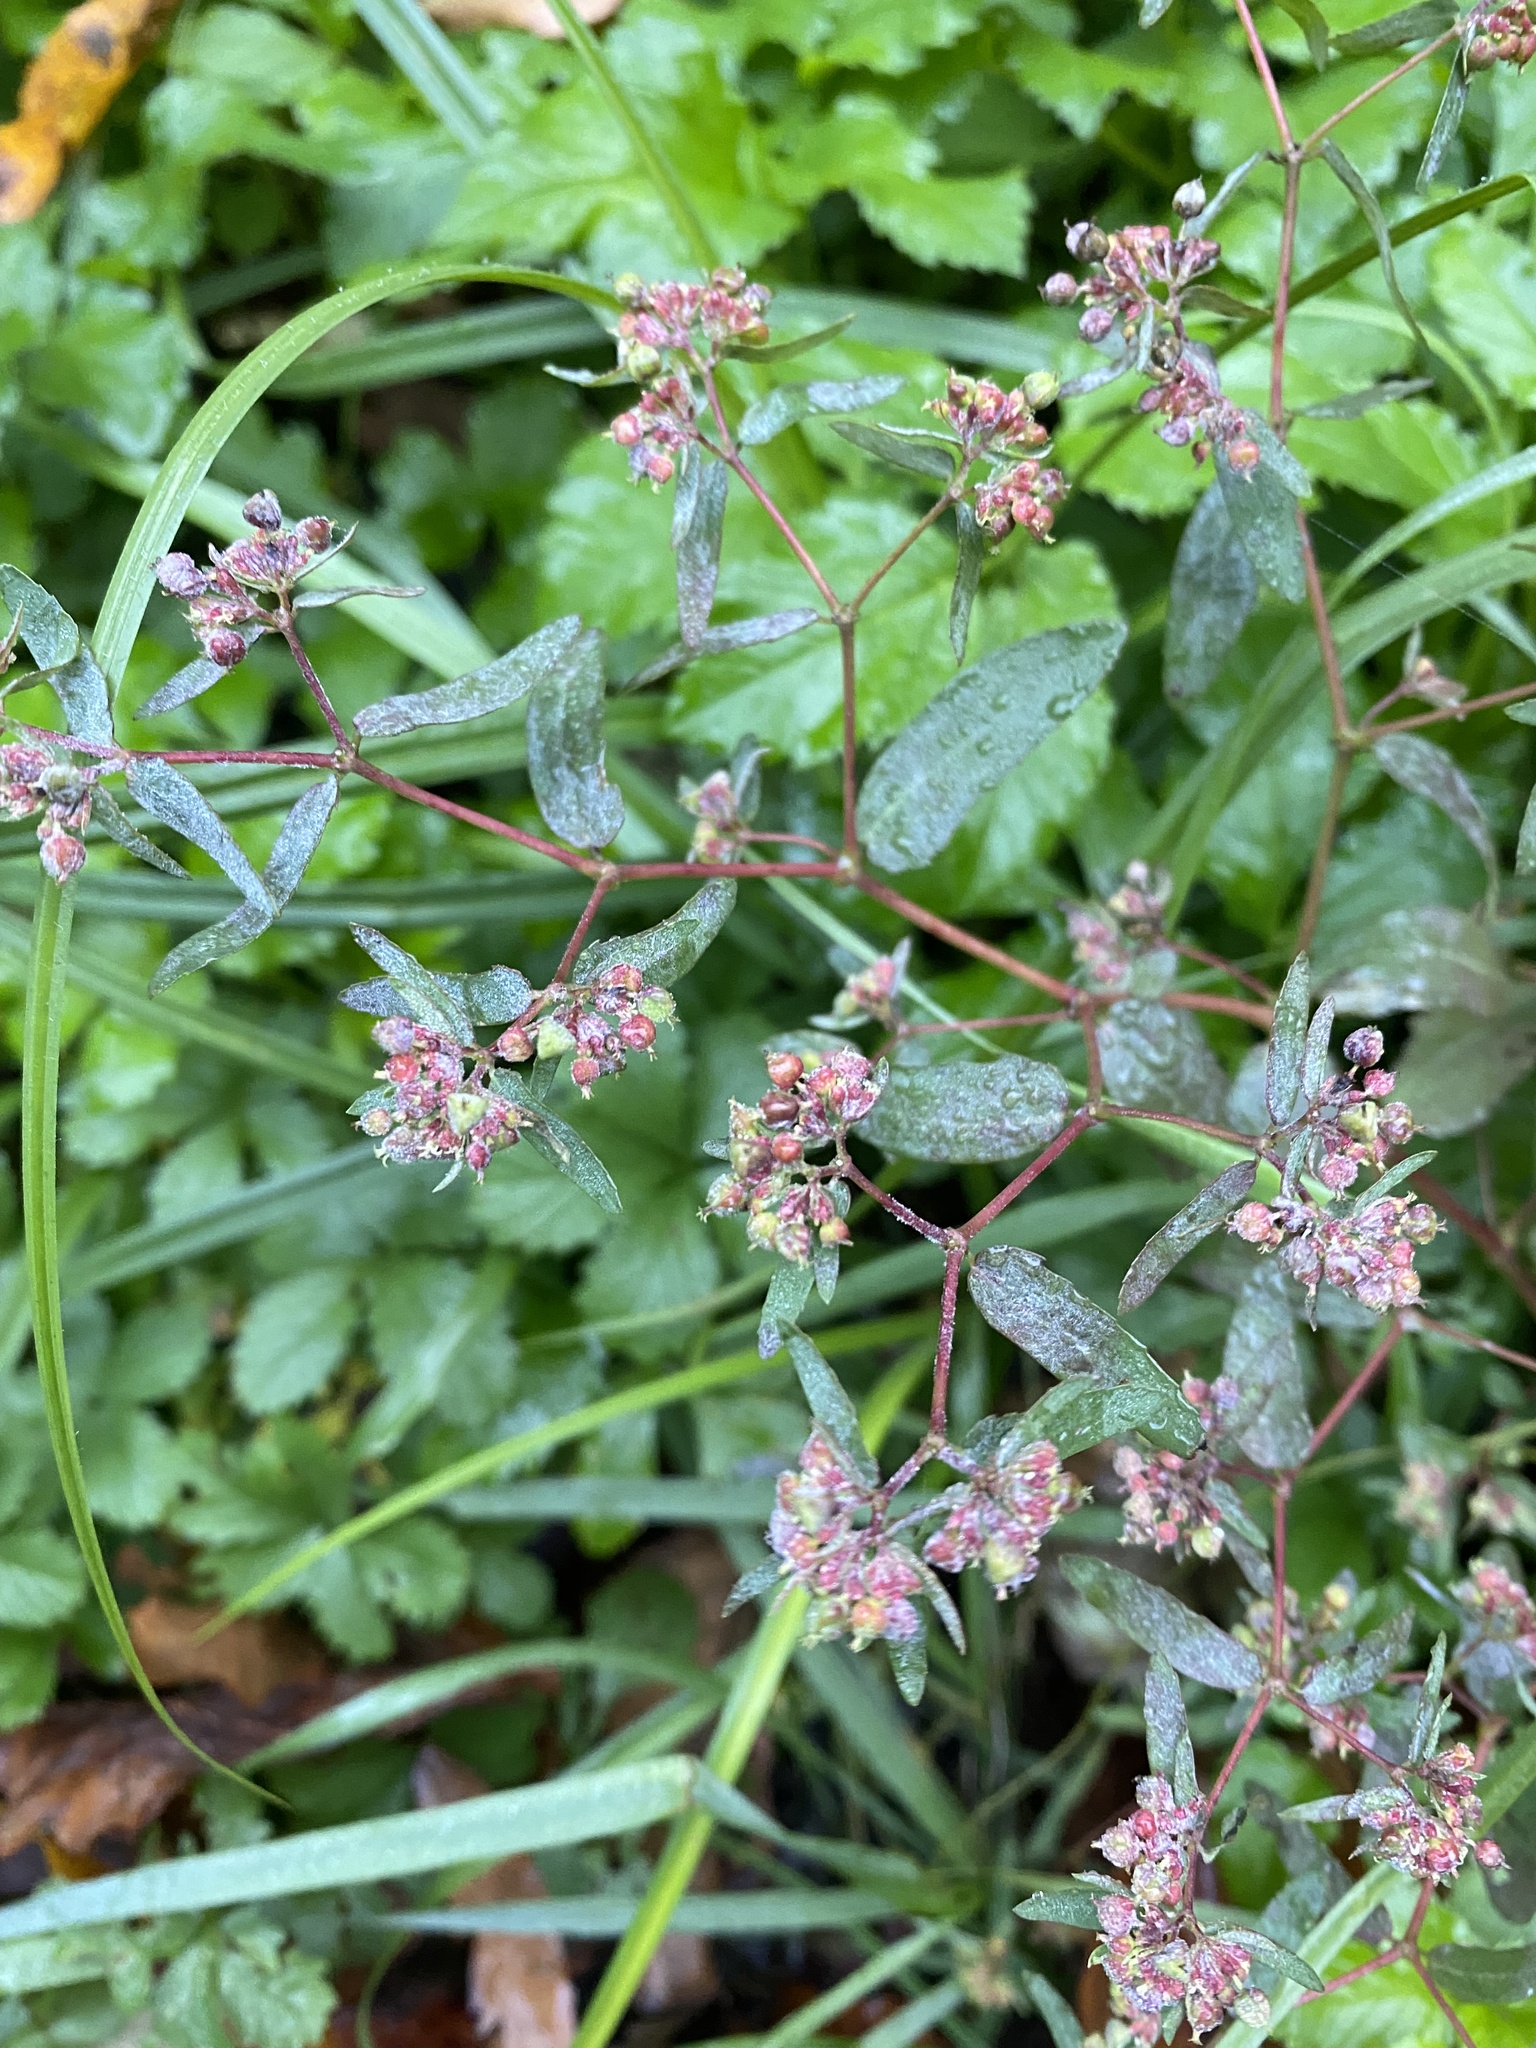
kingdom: Plantae
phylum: Tracheophyta
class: Magnoliopsida
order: Malpighiales
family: Euphorbiaceae
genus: Euphorbia
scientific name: Euphorbia nutans
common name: Eyebane
